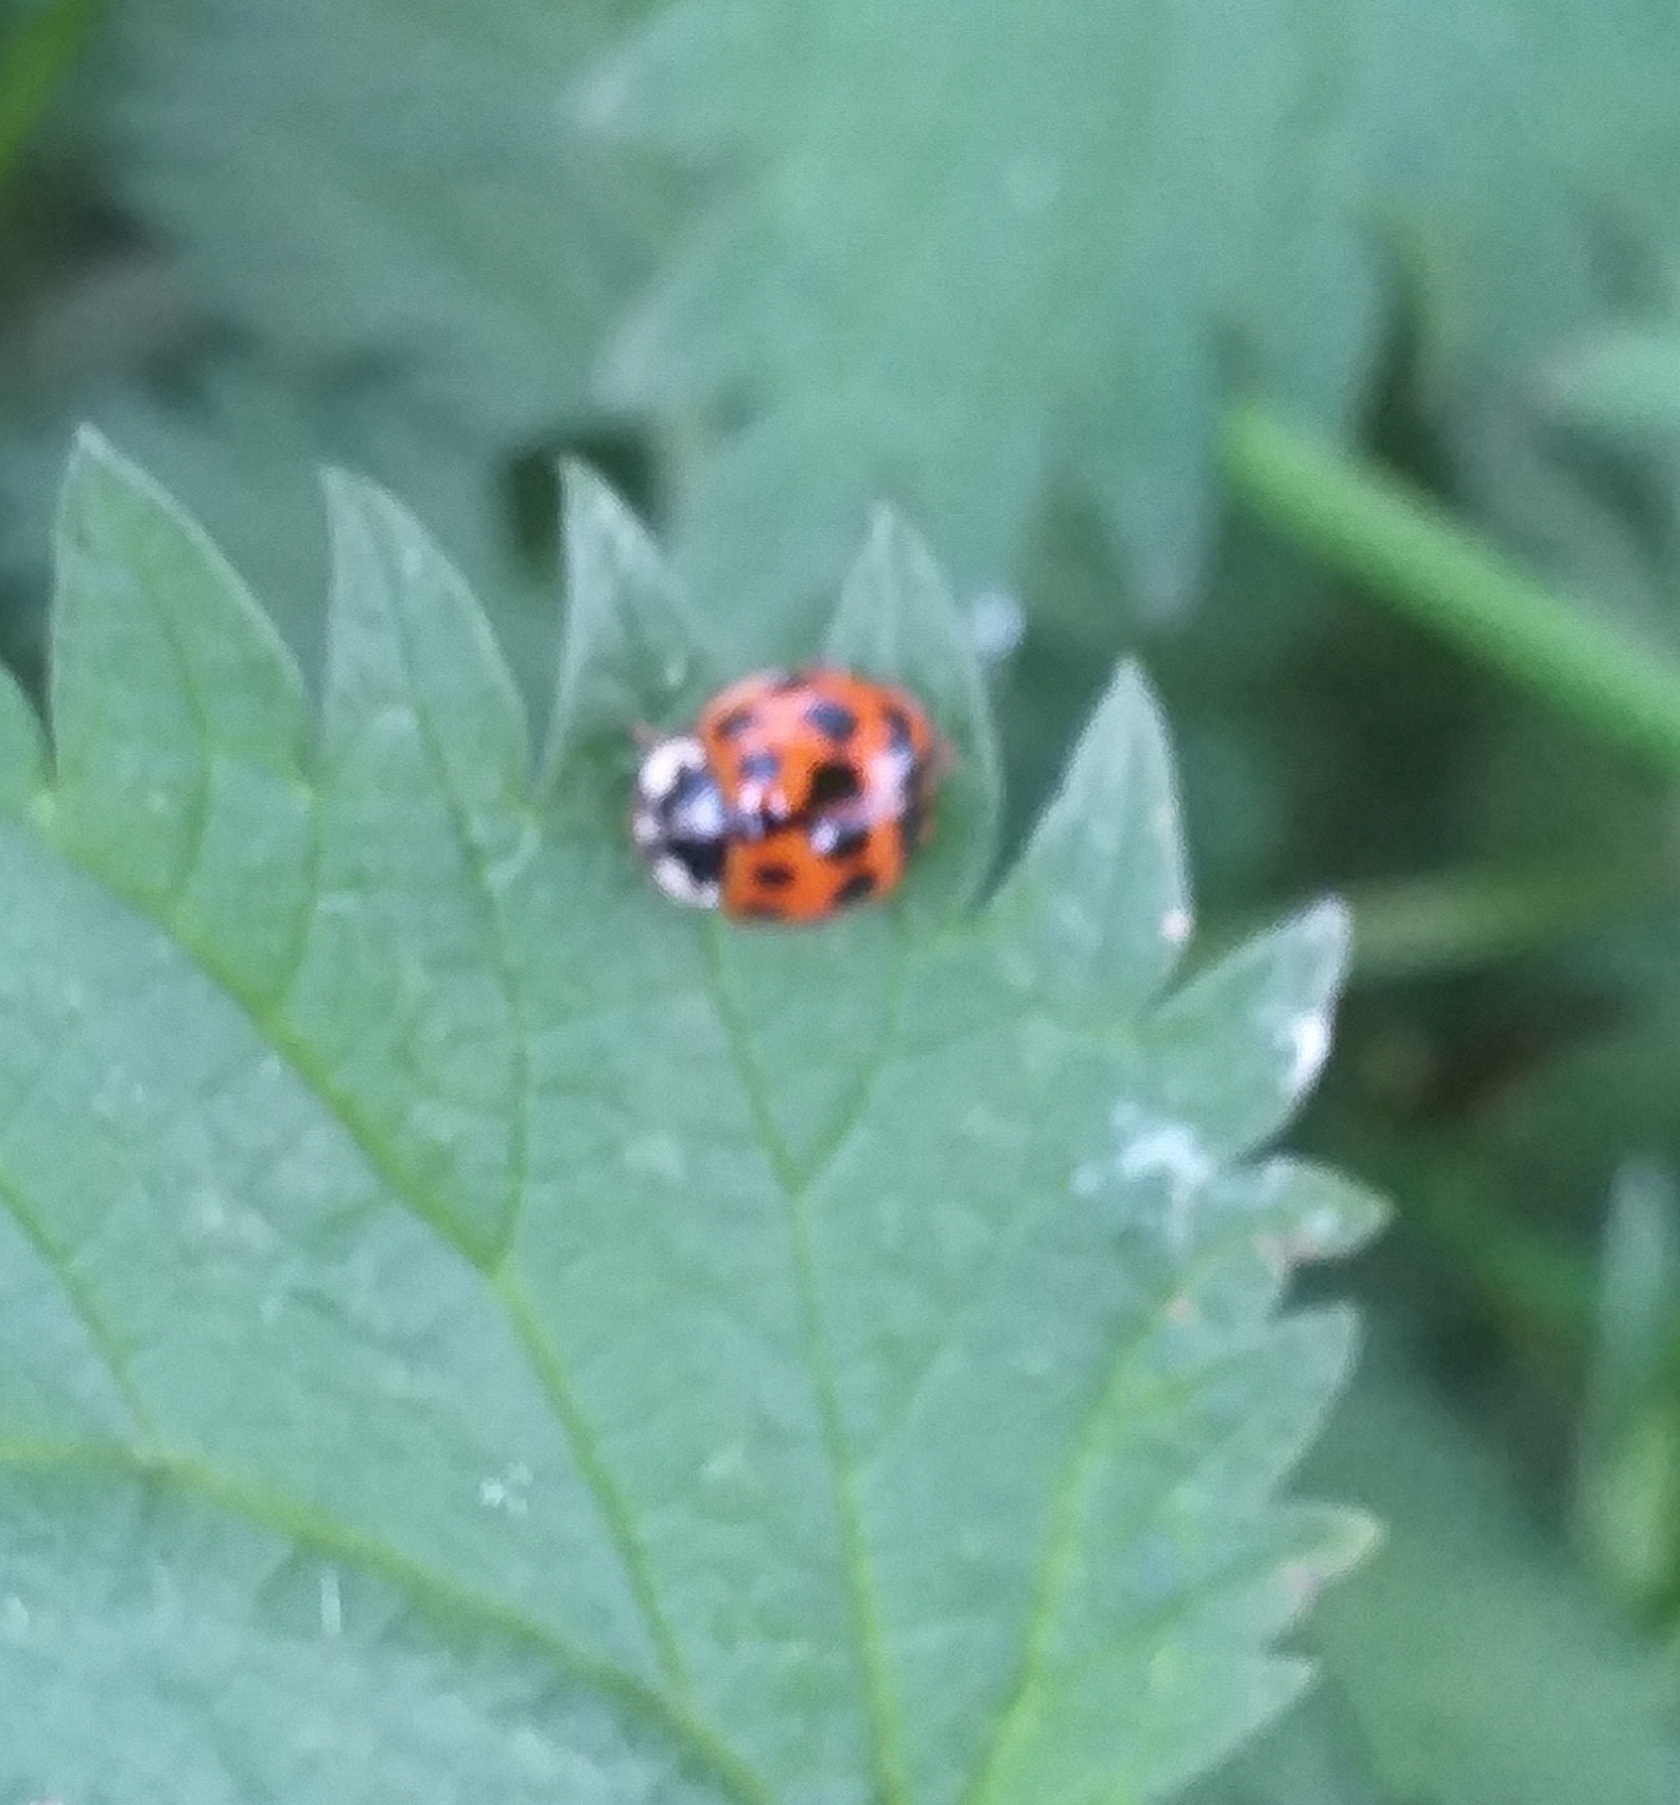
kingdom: Animalia
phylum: Arthropoda
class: Insecta
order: Coleoptera
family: Coccinellidae
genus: Harmonia
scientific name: Harmonia axyridis
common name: Harlequin ladybird
